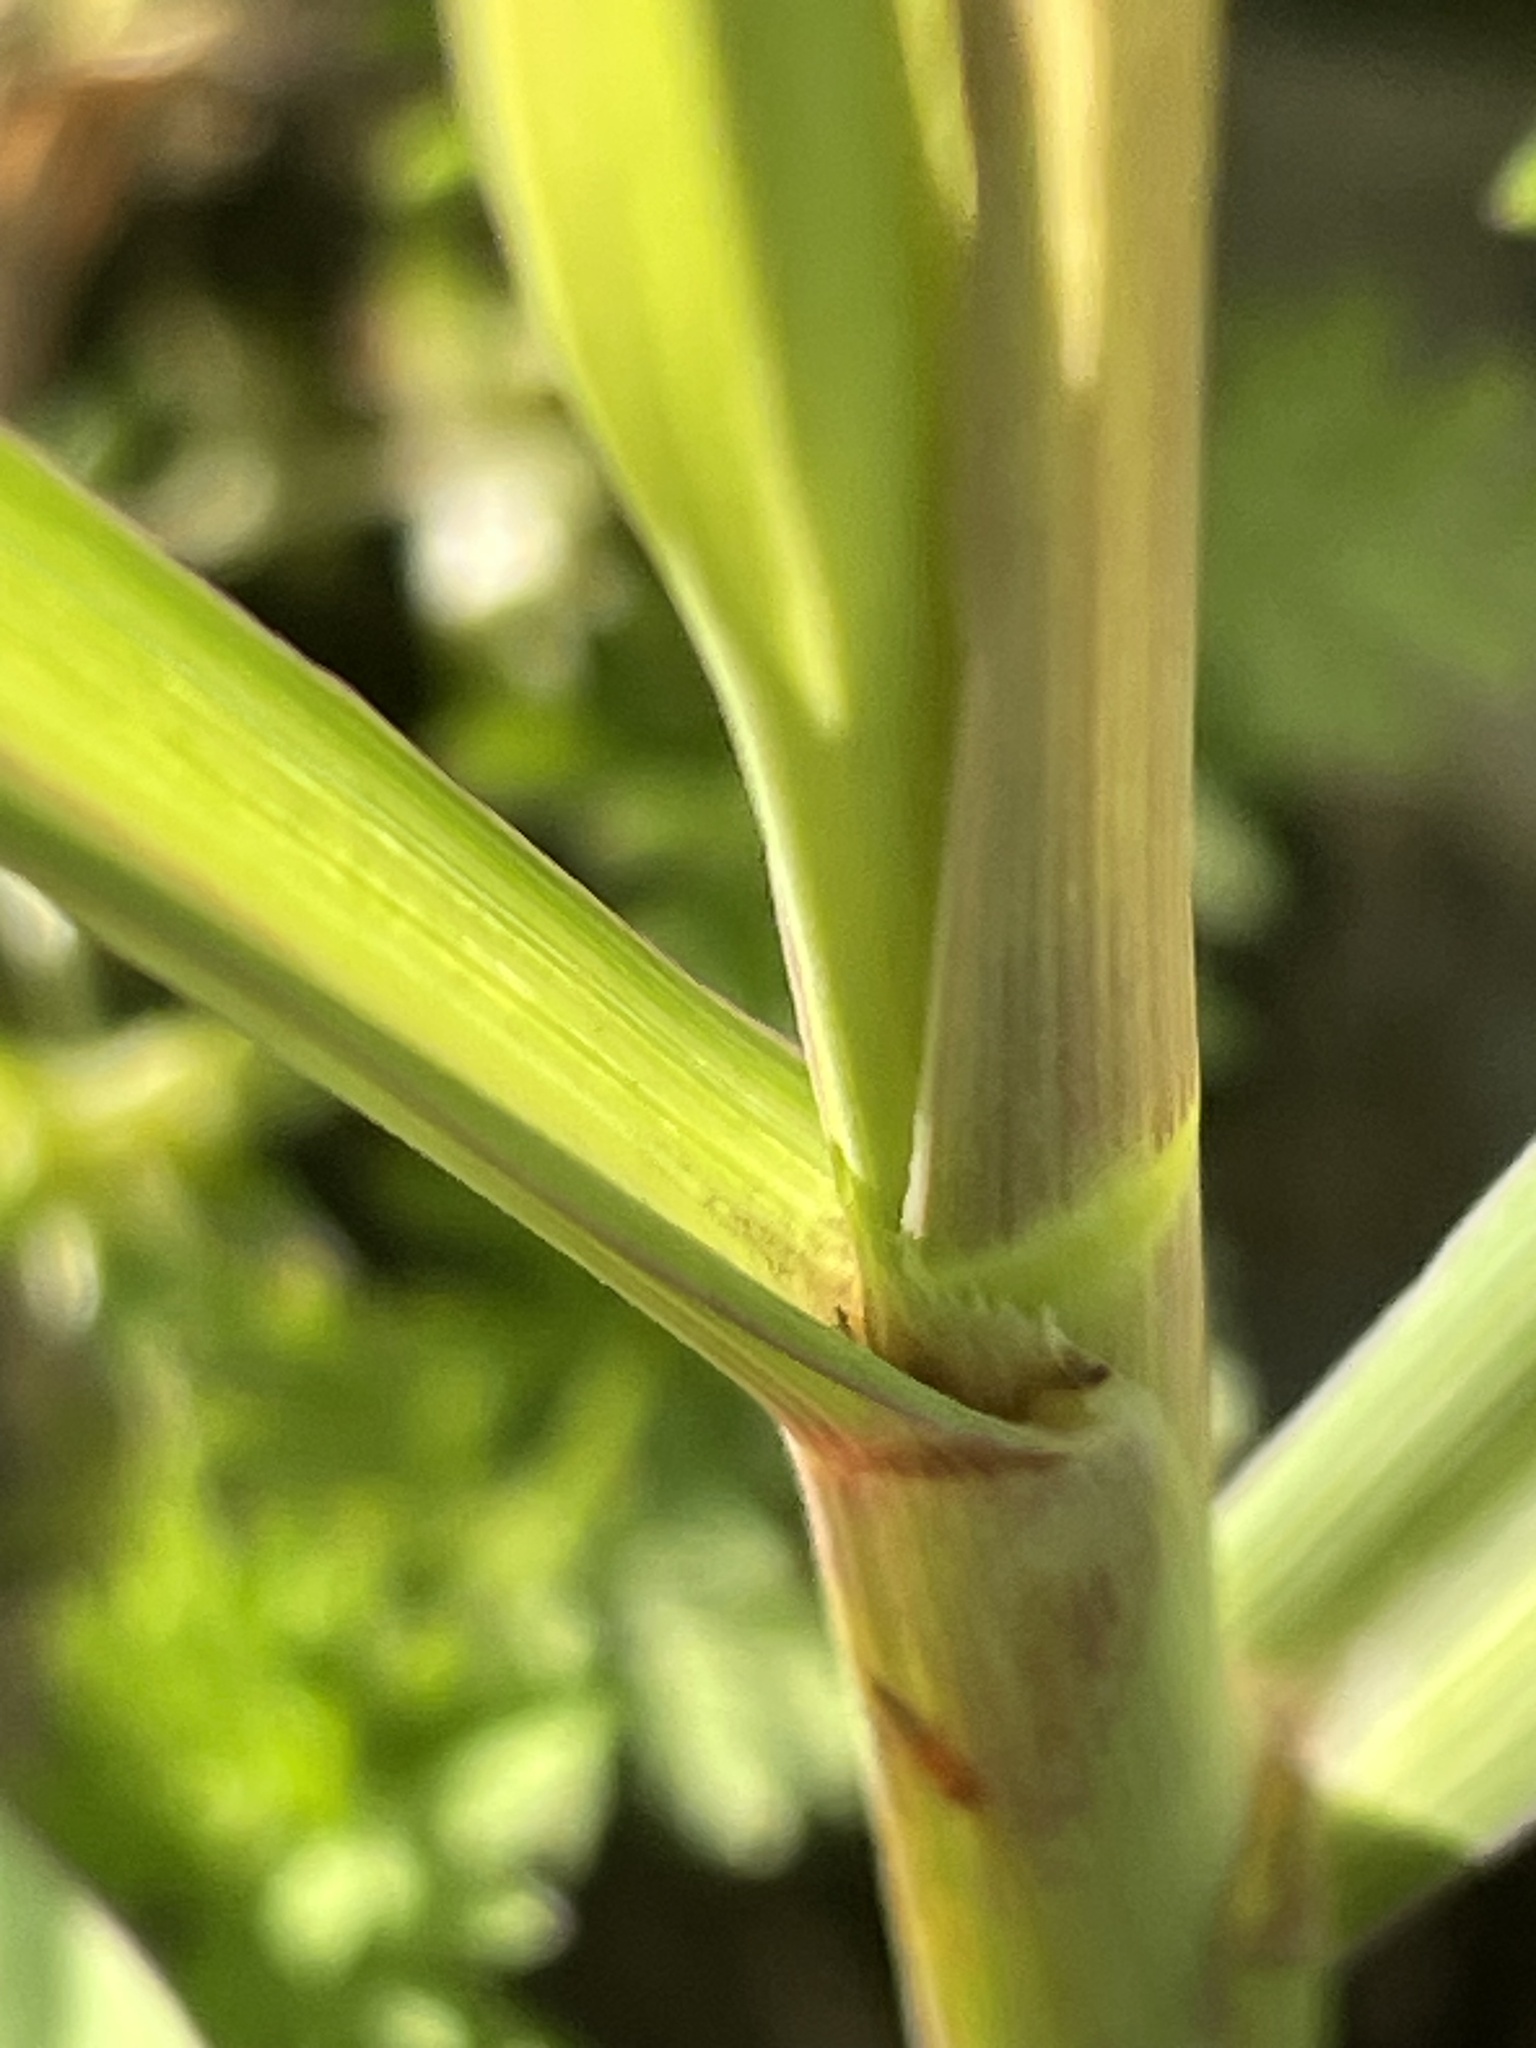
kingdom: Plantae
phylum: Tracheophyta
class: Liliopsida
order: Poales
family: Poaceae
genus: Sorghum
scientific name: Sorghum halepense
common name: Johnson-grass
